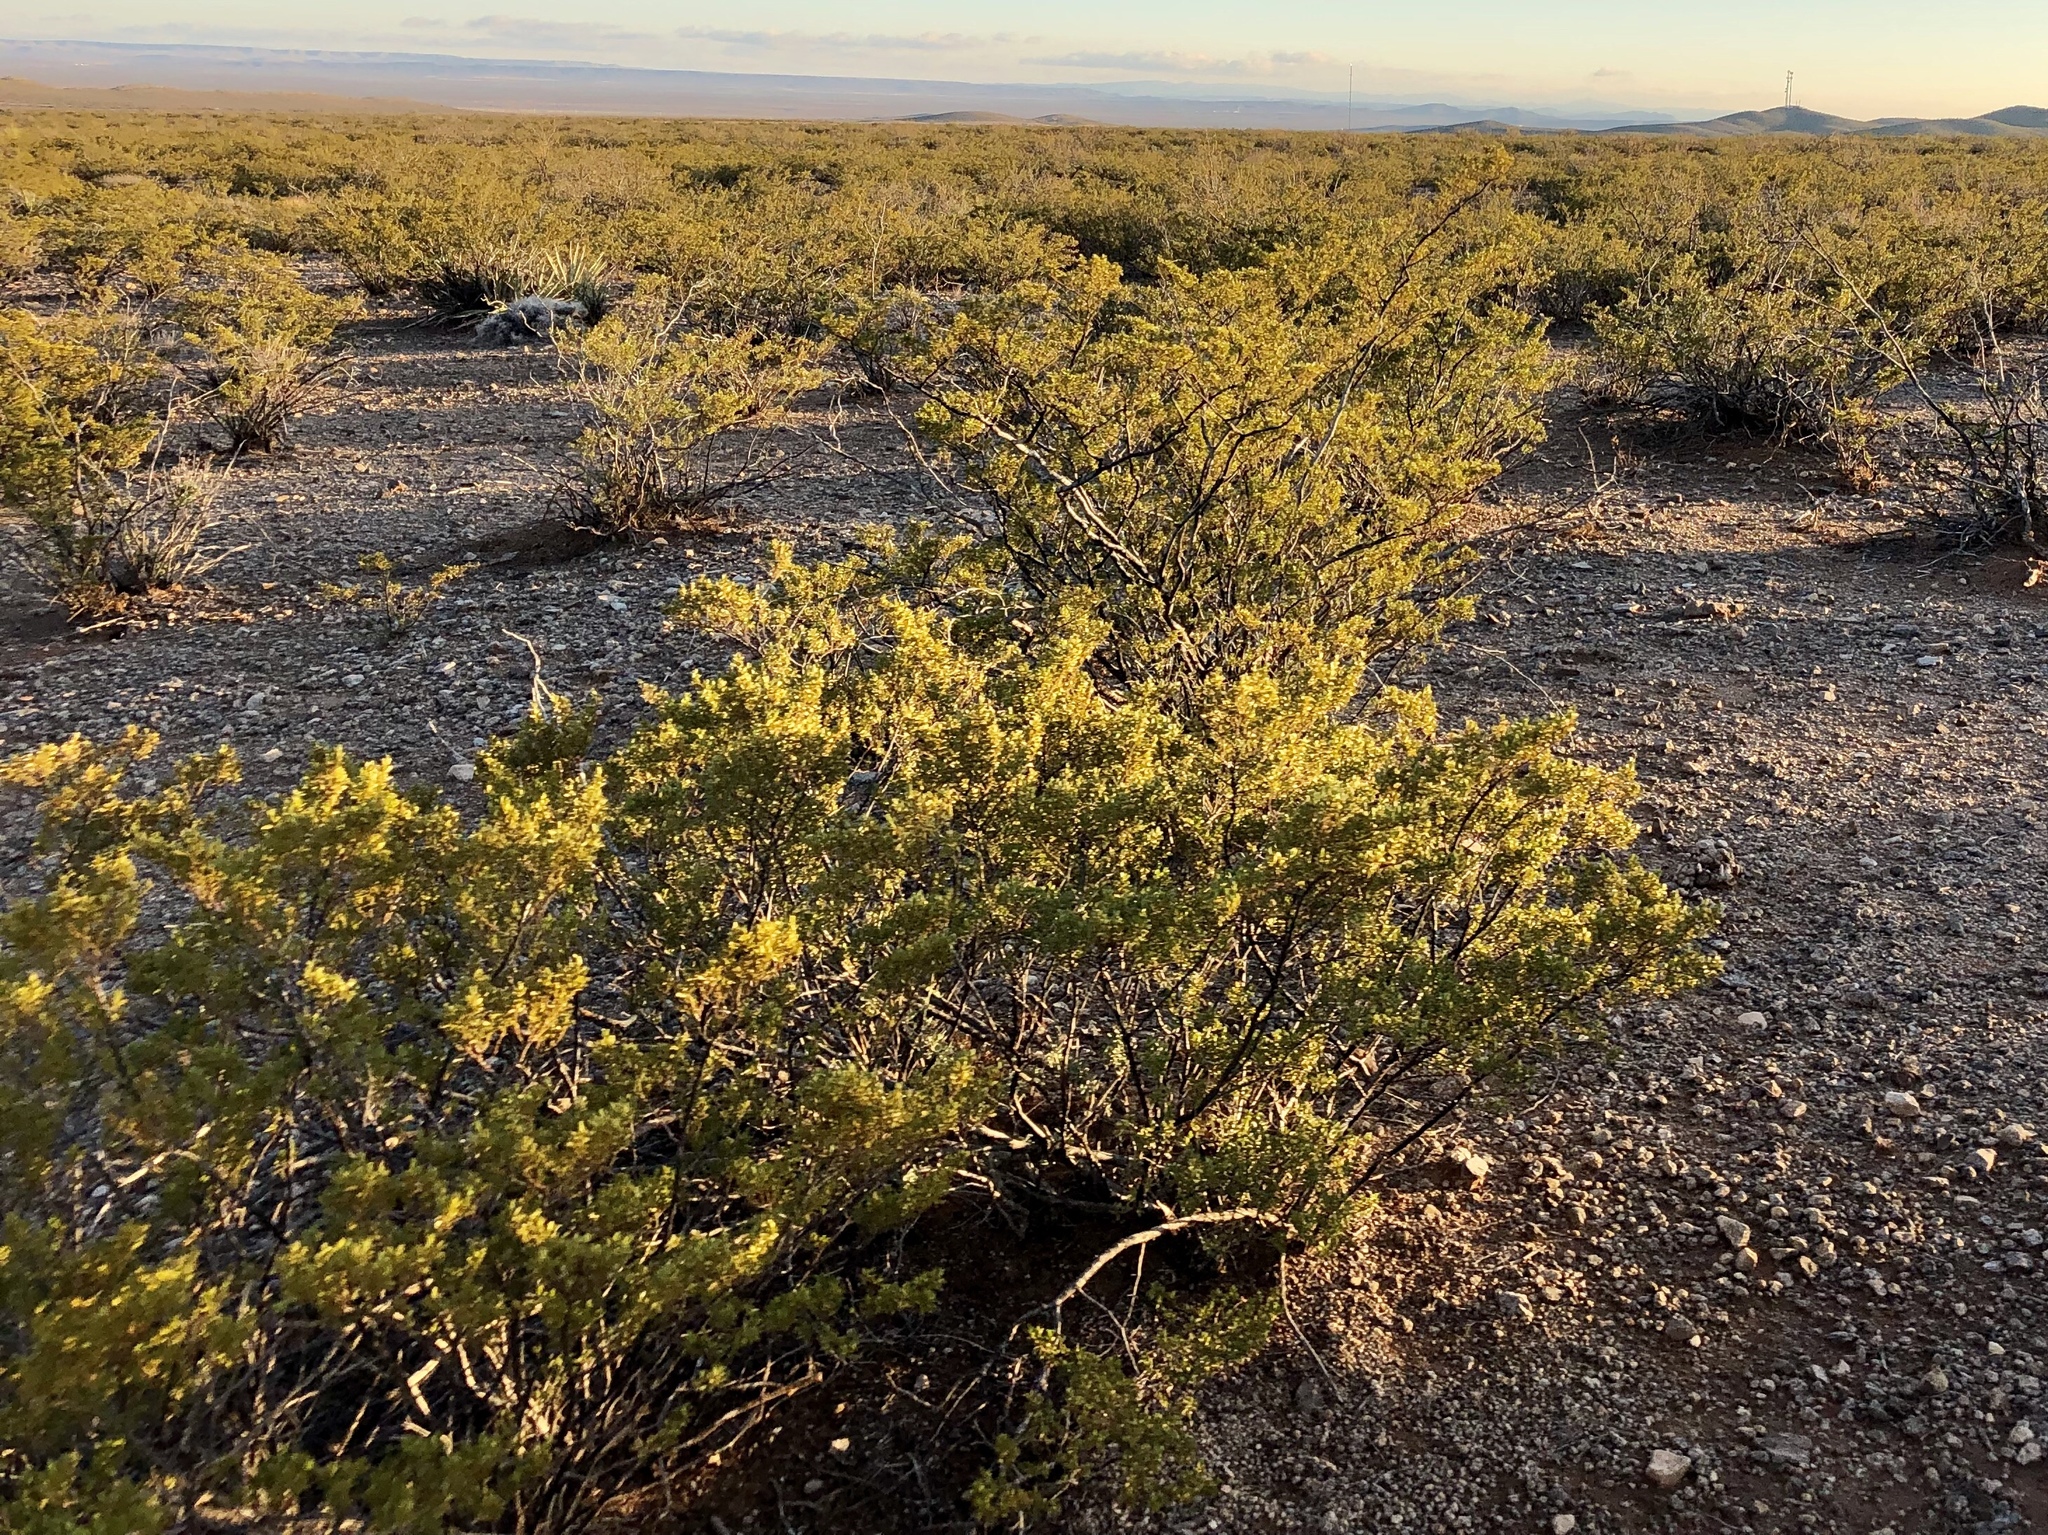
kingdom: Plantae
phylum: Tracheophyta
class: Magnoliopsida
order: Zygophyllales
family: Zygophyllaceae
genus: Larrea
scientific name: Larrea tridentata
